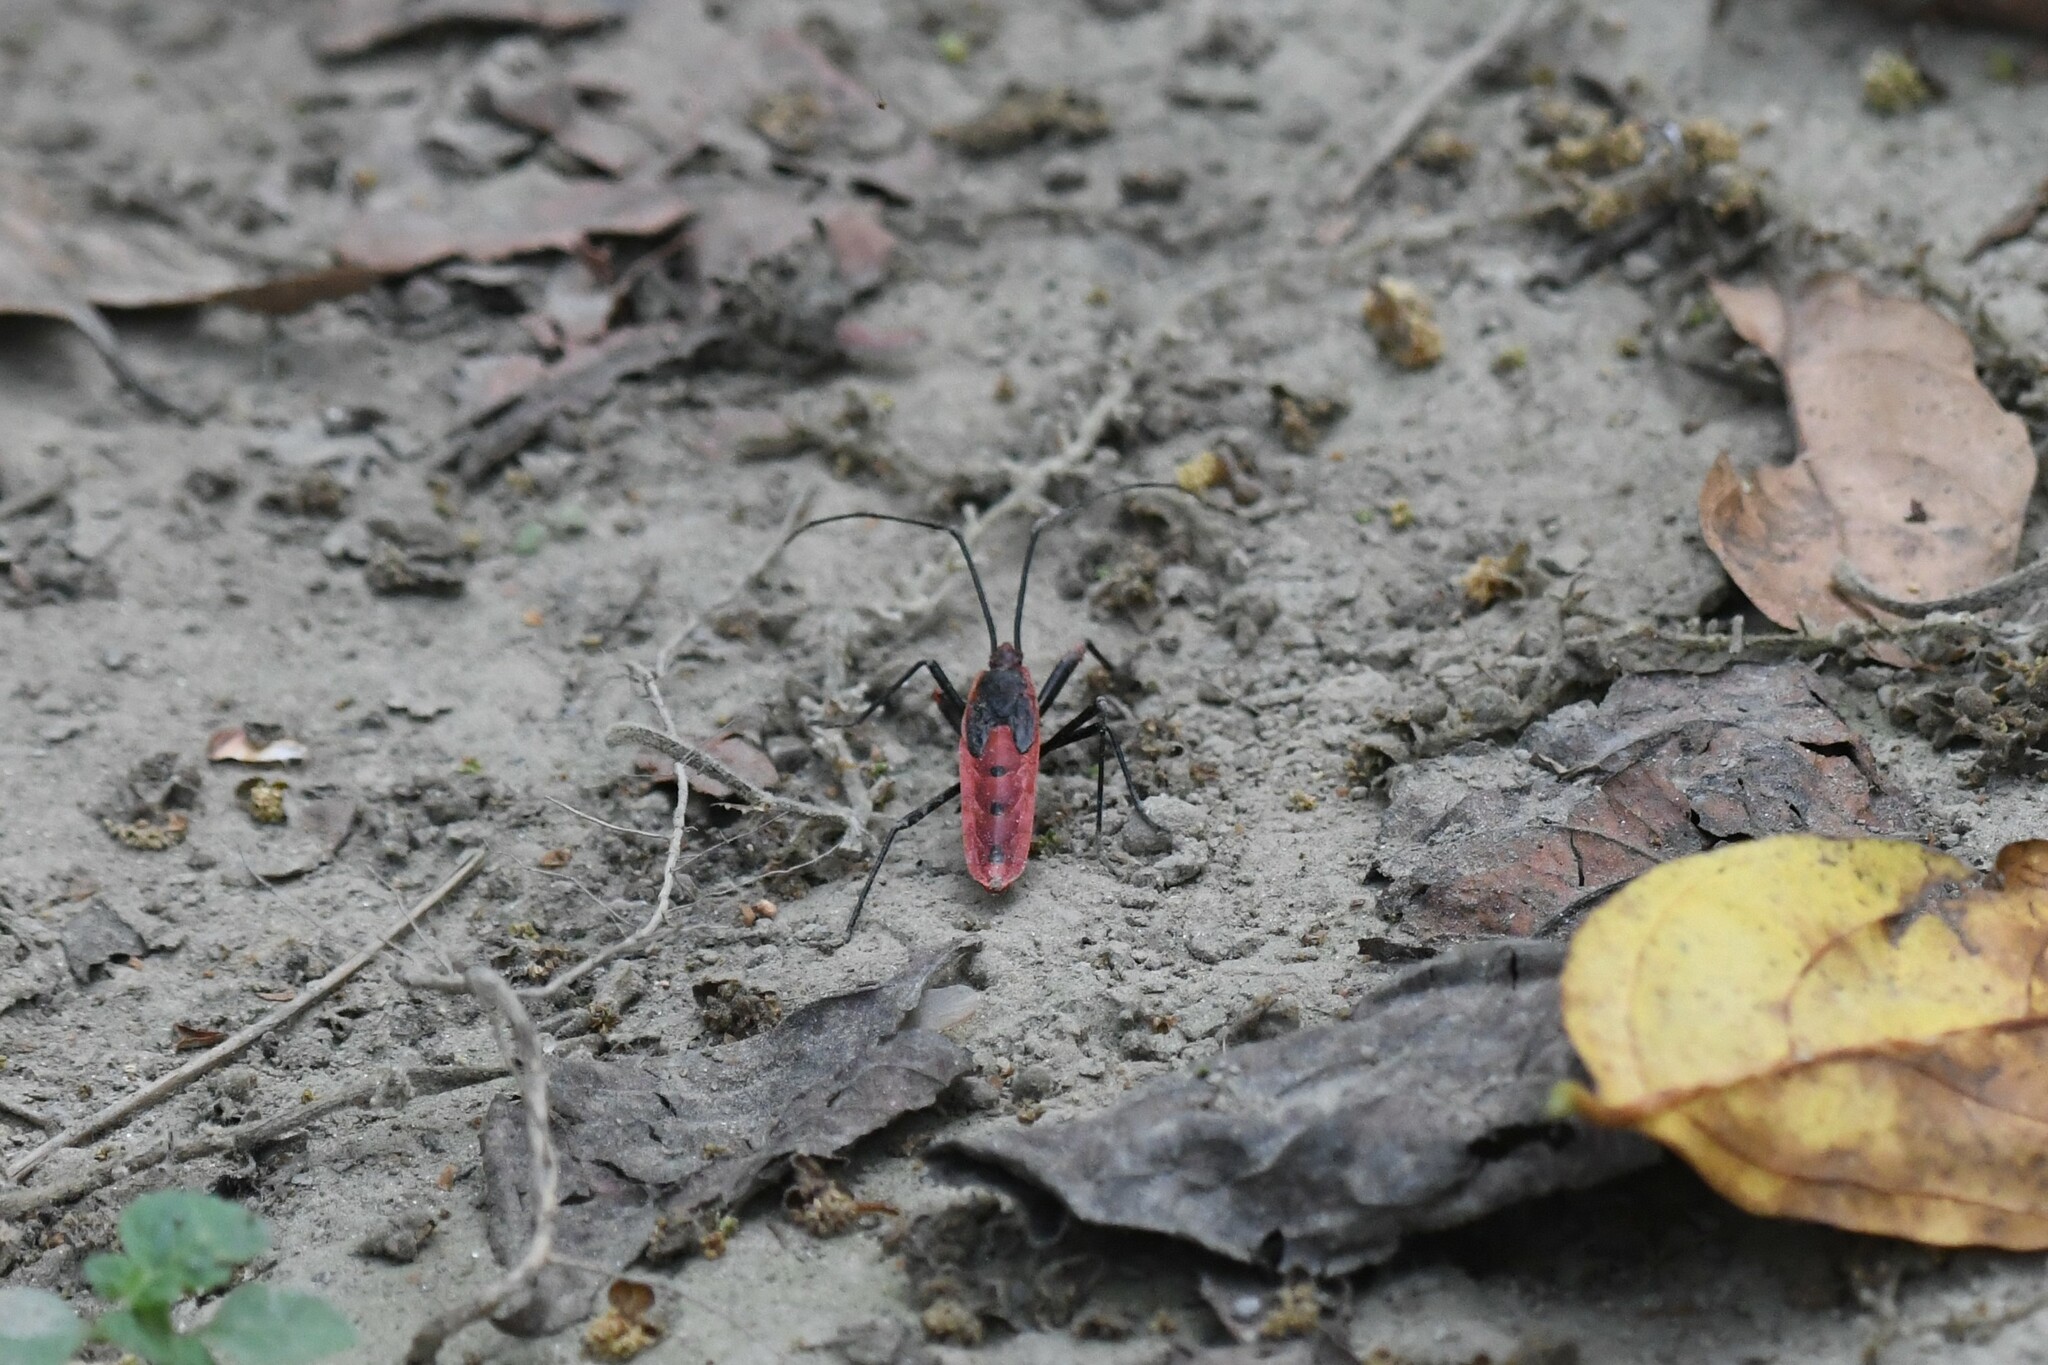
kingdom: Animalia
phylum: Arthropoda
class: Insecta
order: Hemiptera
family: Largidae
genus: Macrocheraia
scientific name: Macrocheraia grandis
